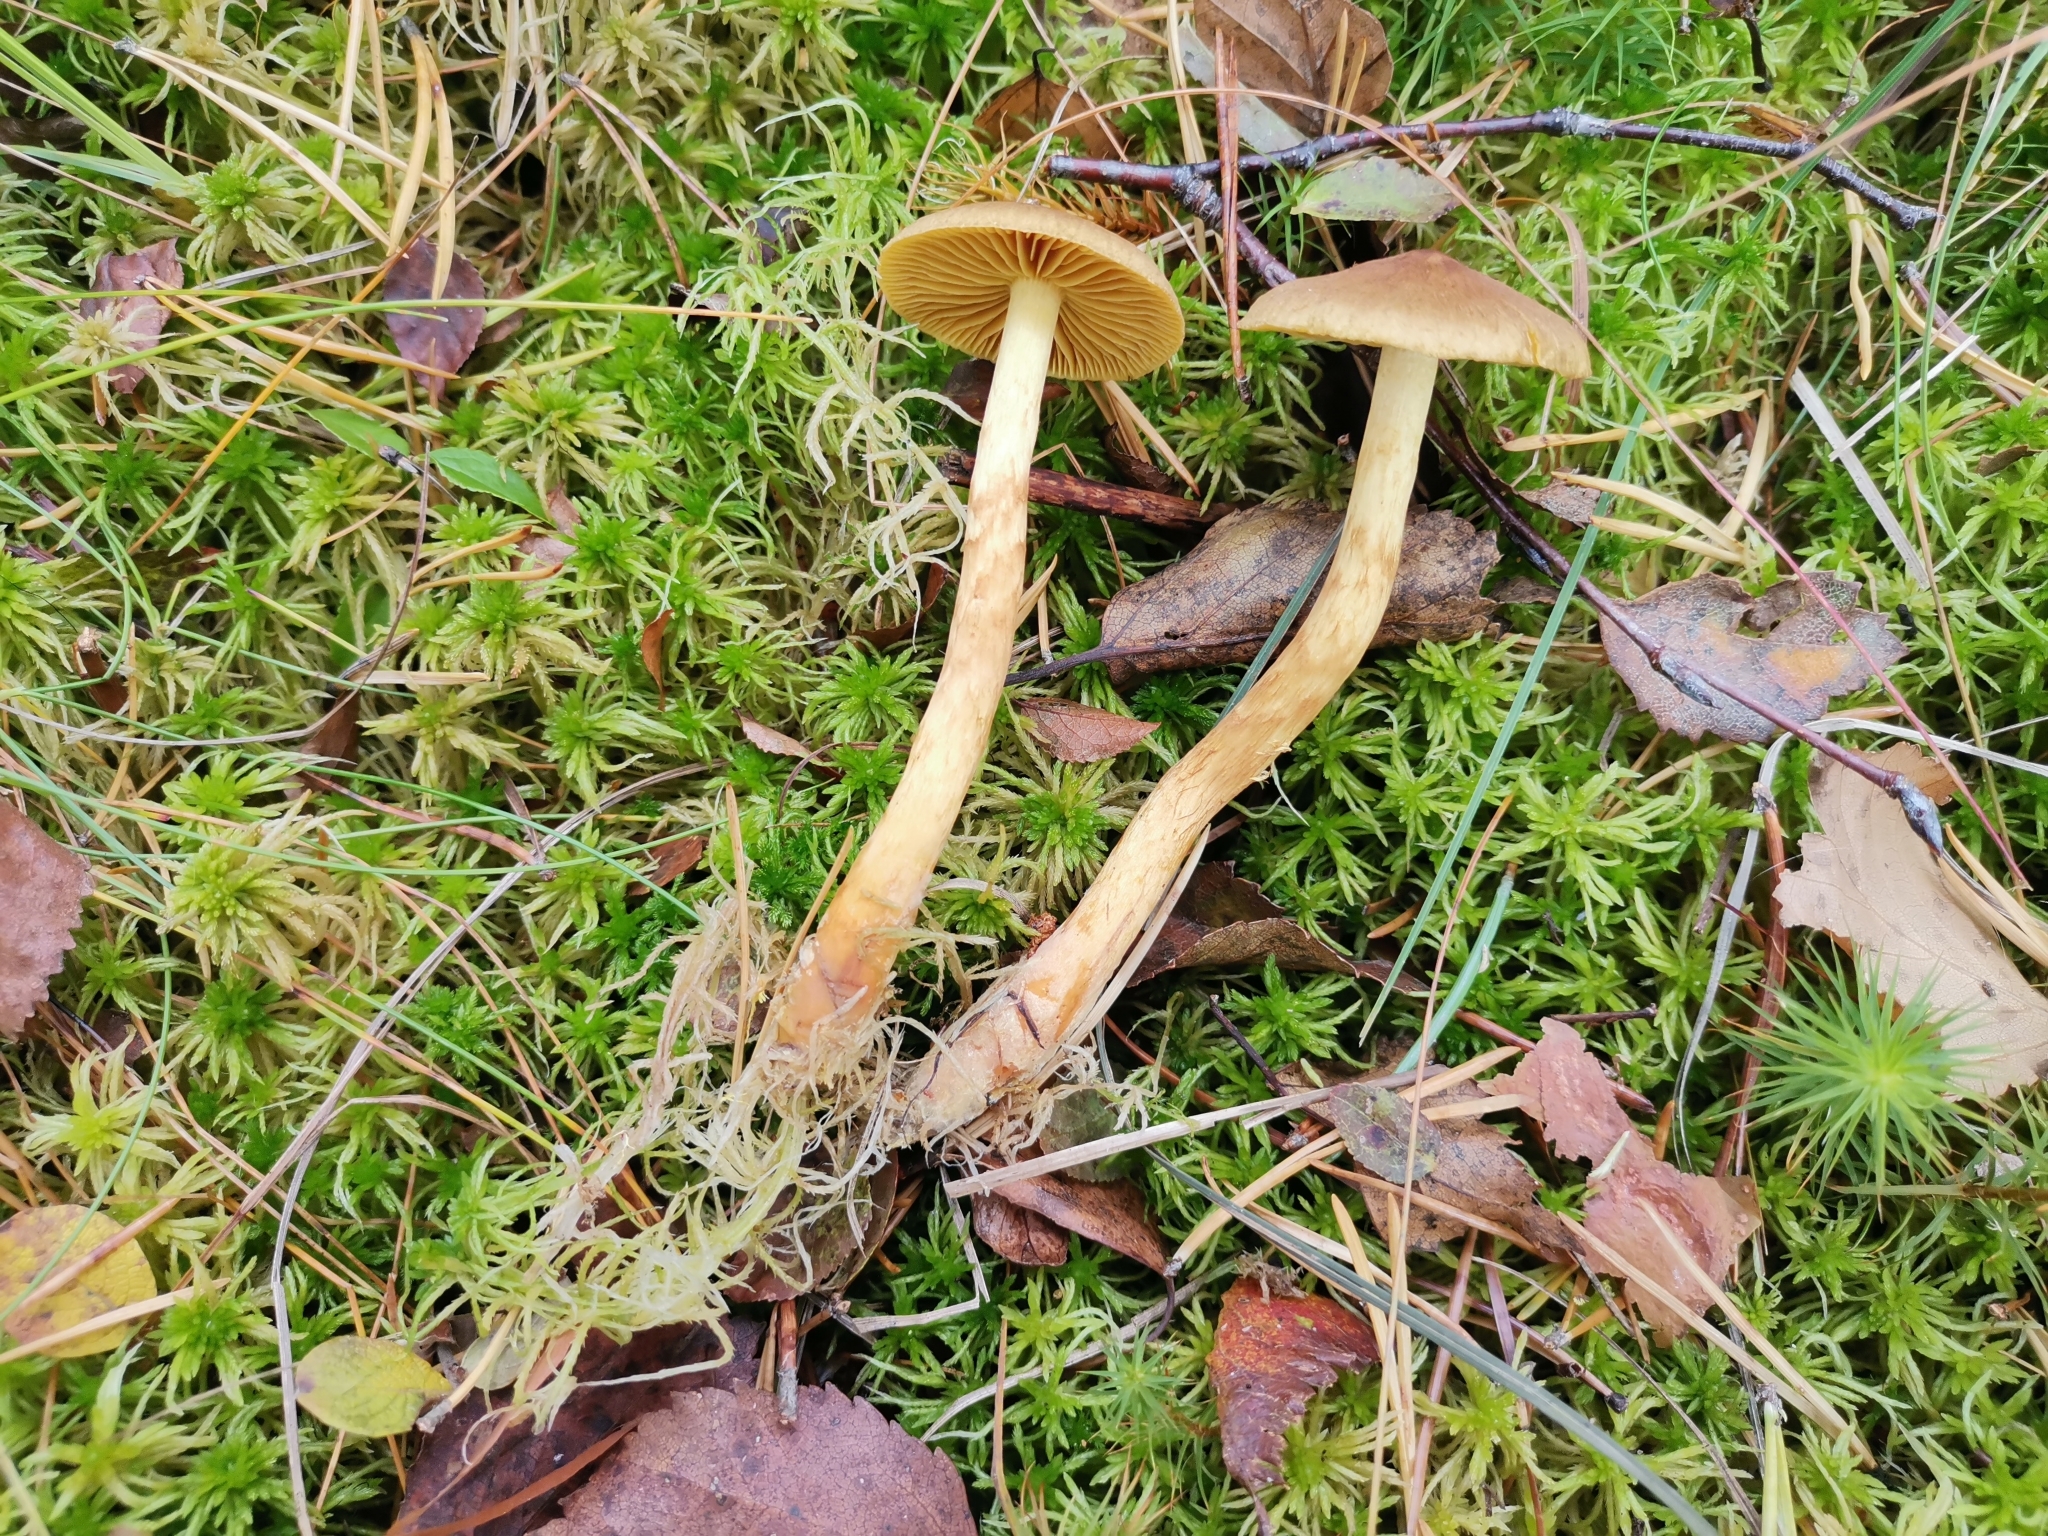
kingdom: Fungi
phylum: Basidiomycota
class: Agaricomycetes
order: Agaricales
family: Cortinariaceae
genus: Cortinarius
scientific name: Cortinarius bataillei
